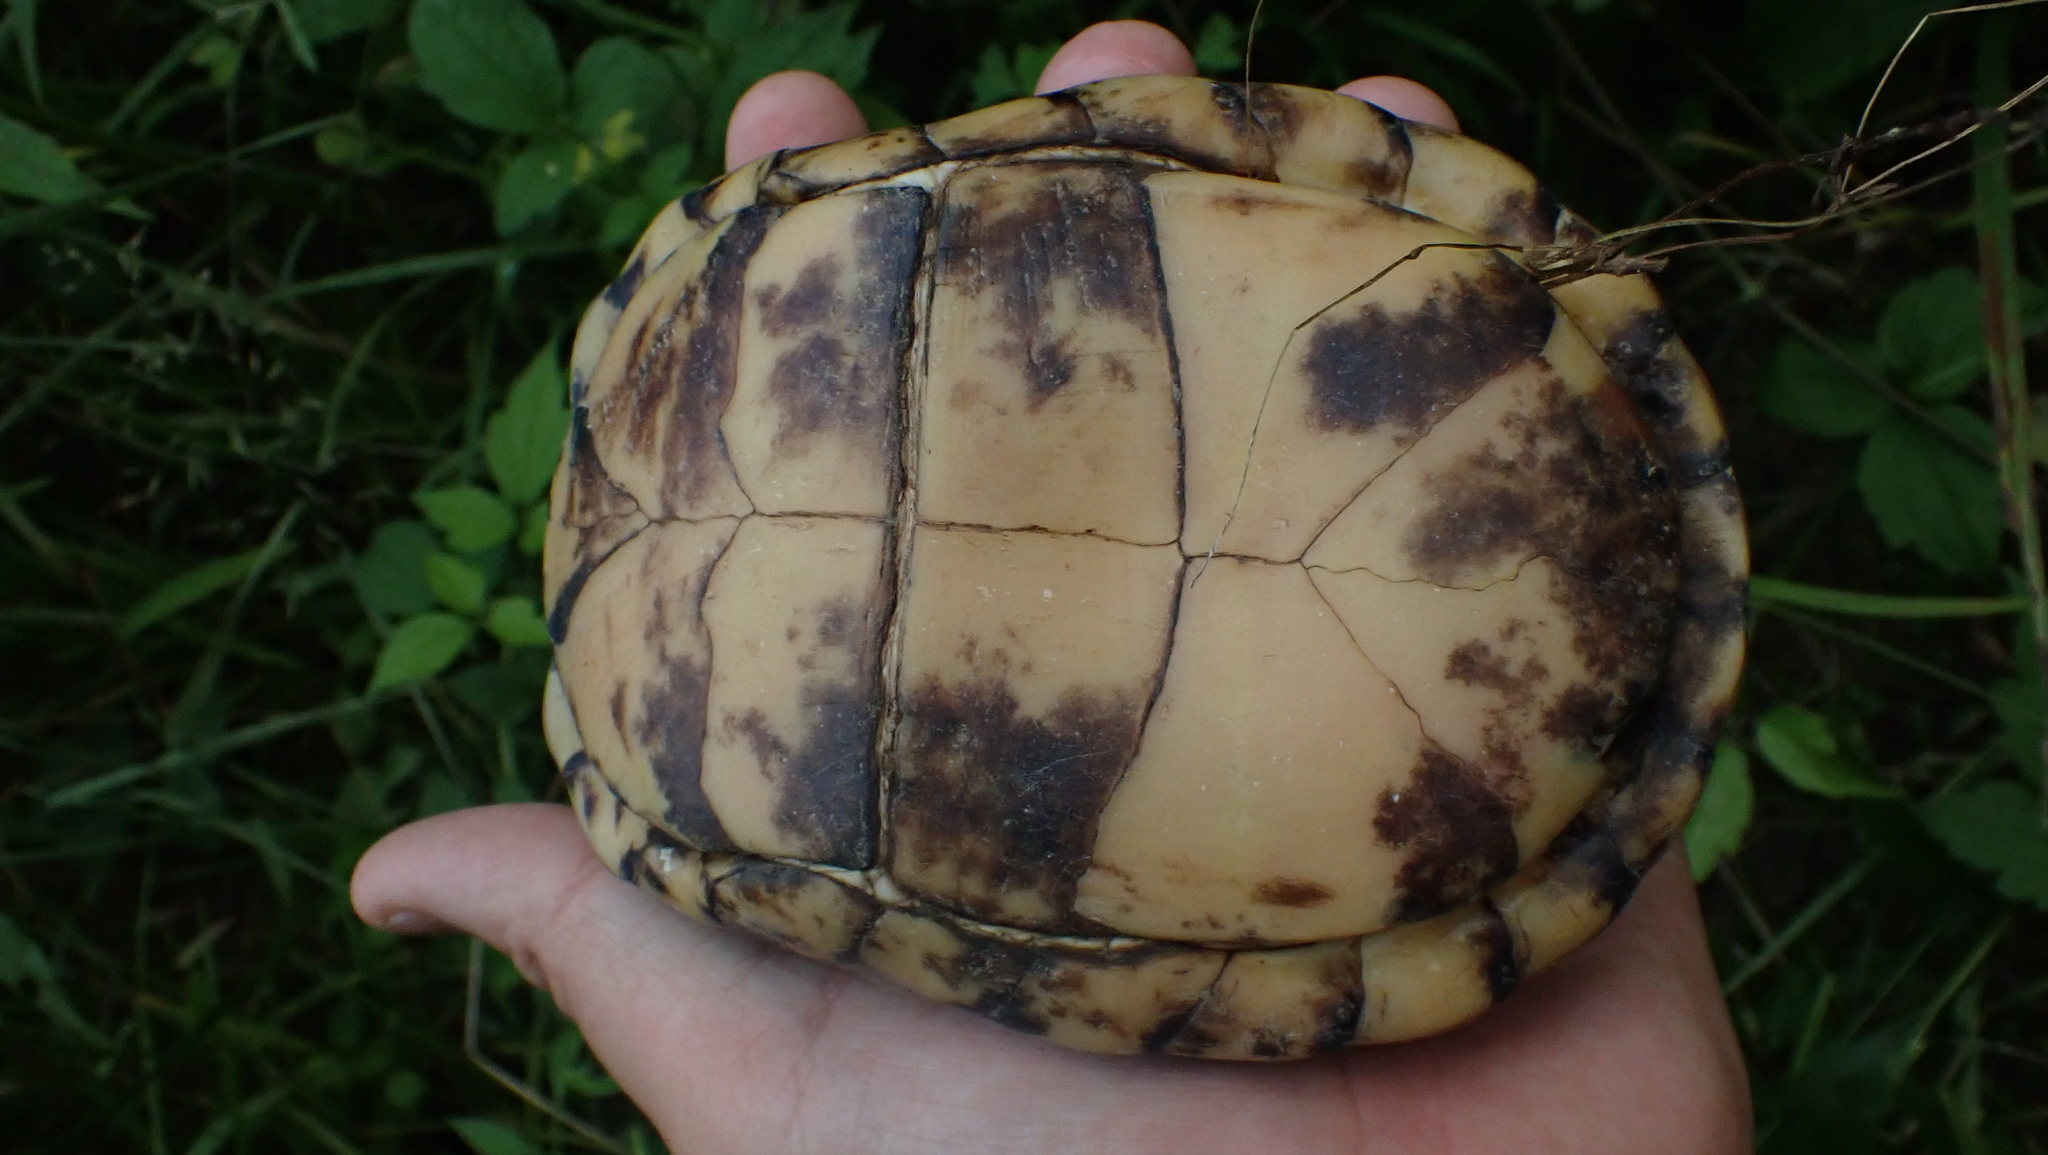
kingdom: Animalia
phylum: Chordata
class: Testudines
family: Emydidae
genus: Terrapene
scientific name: Terrapene carolina
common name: Common box turtle
